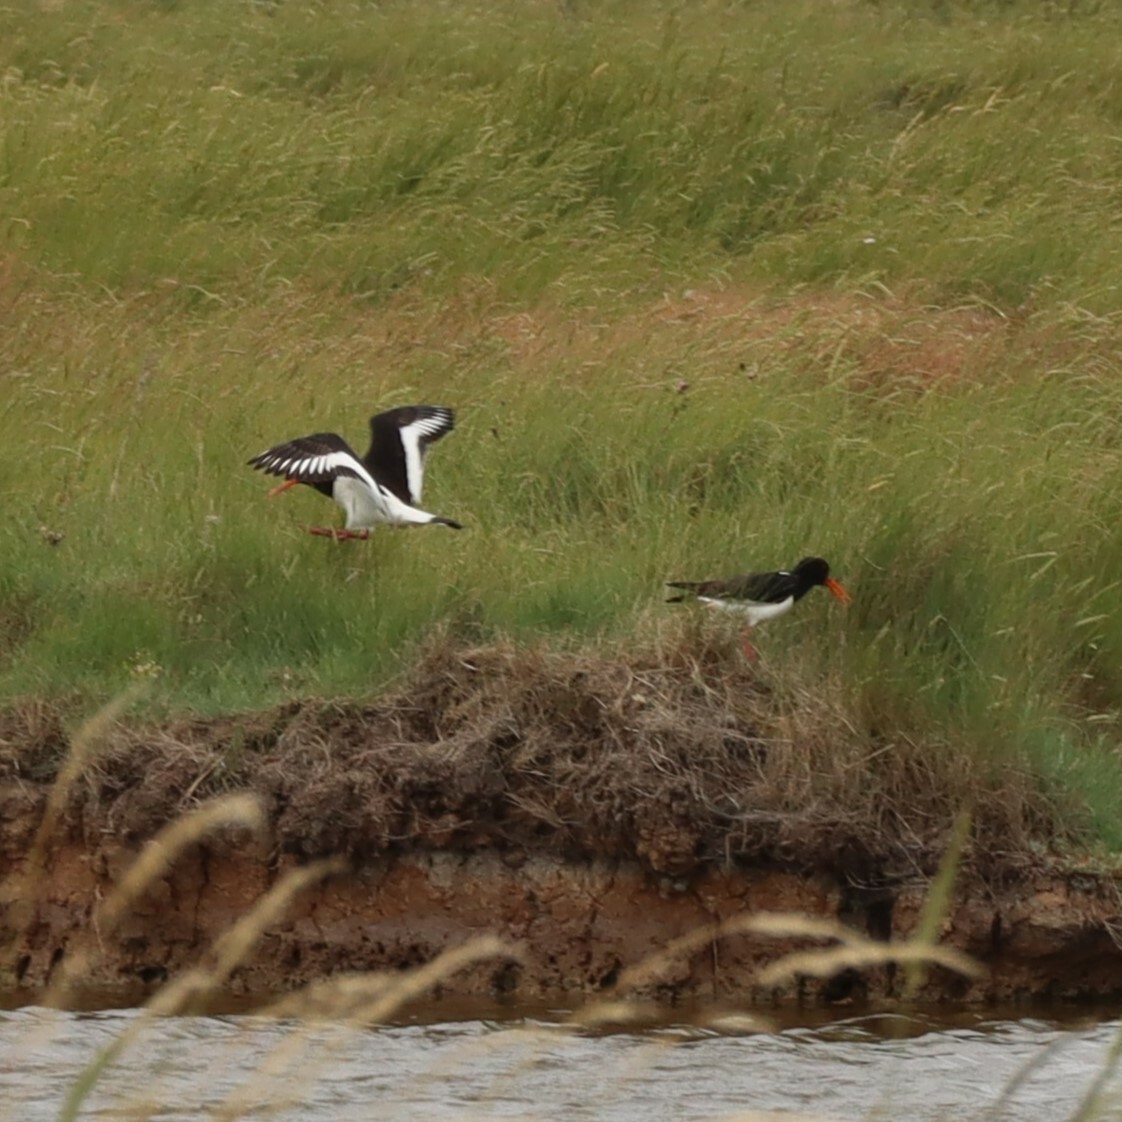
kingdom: Animalia
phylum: Chordata
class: Aves
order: Charadriiformes
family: Haematopodidae
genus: Haematopus
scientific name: Haematopus ostralegus
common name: Eurasian oystercatcher
